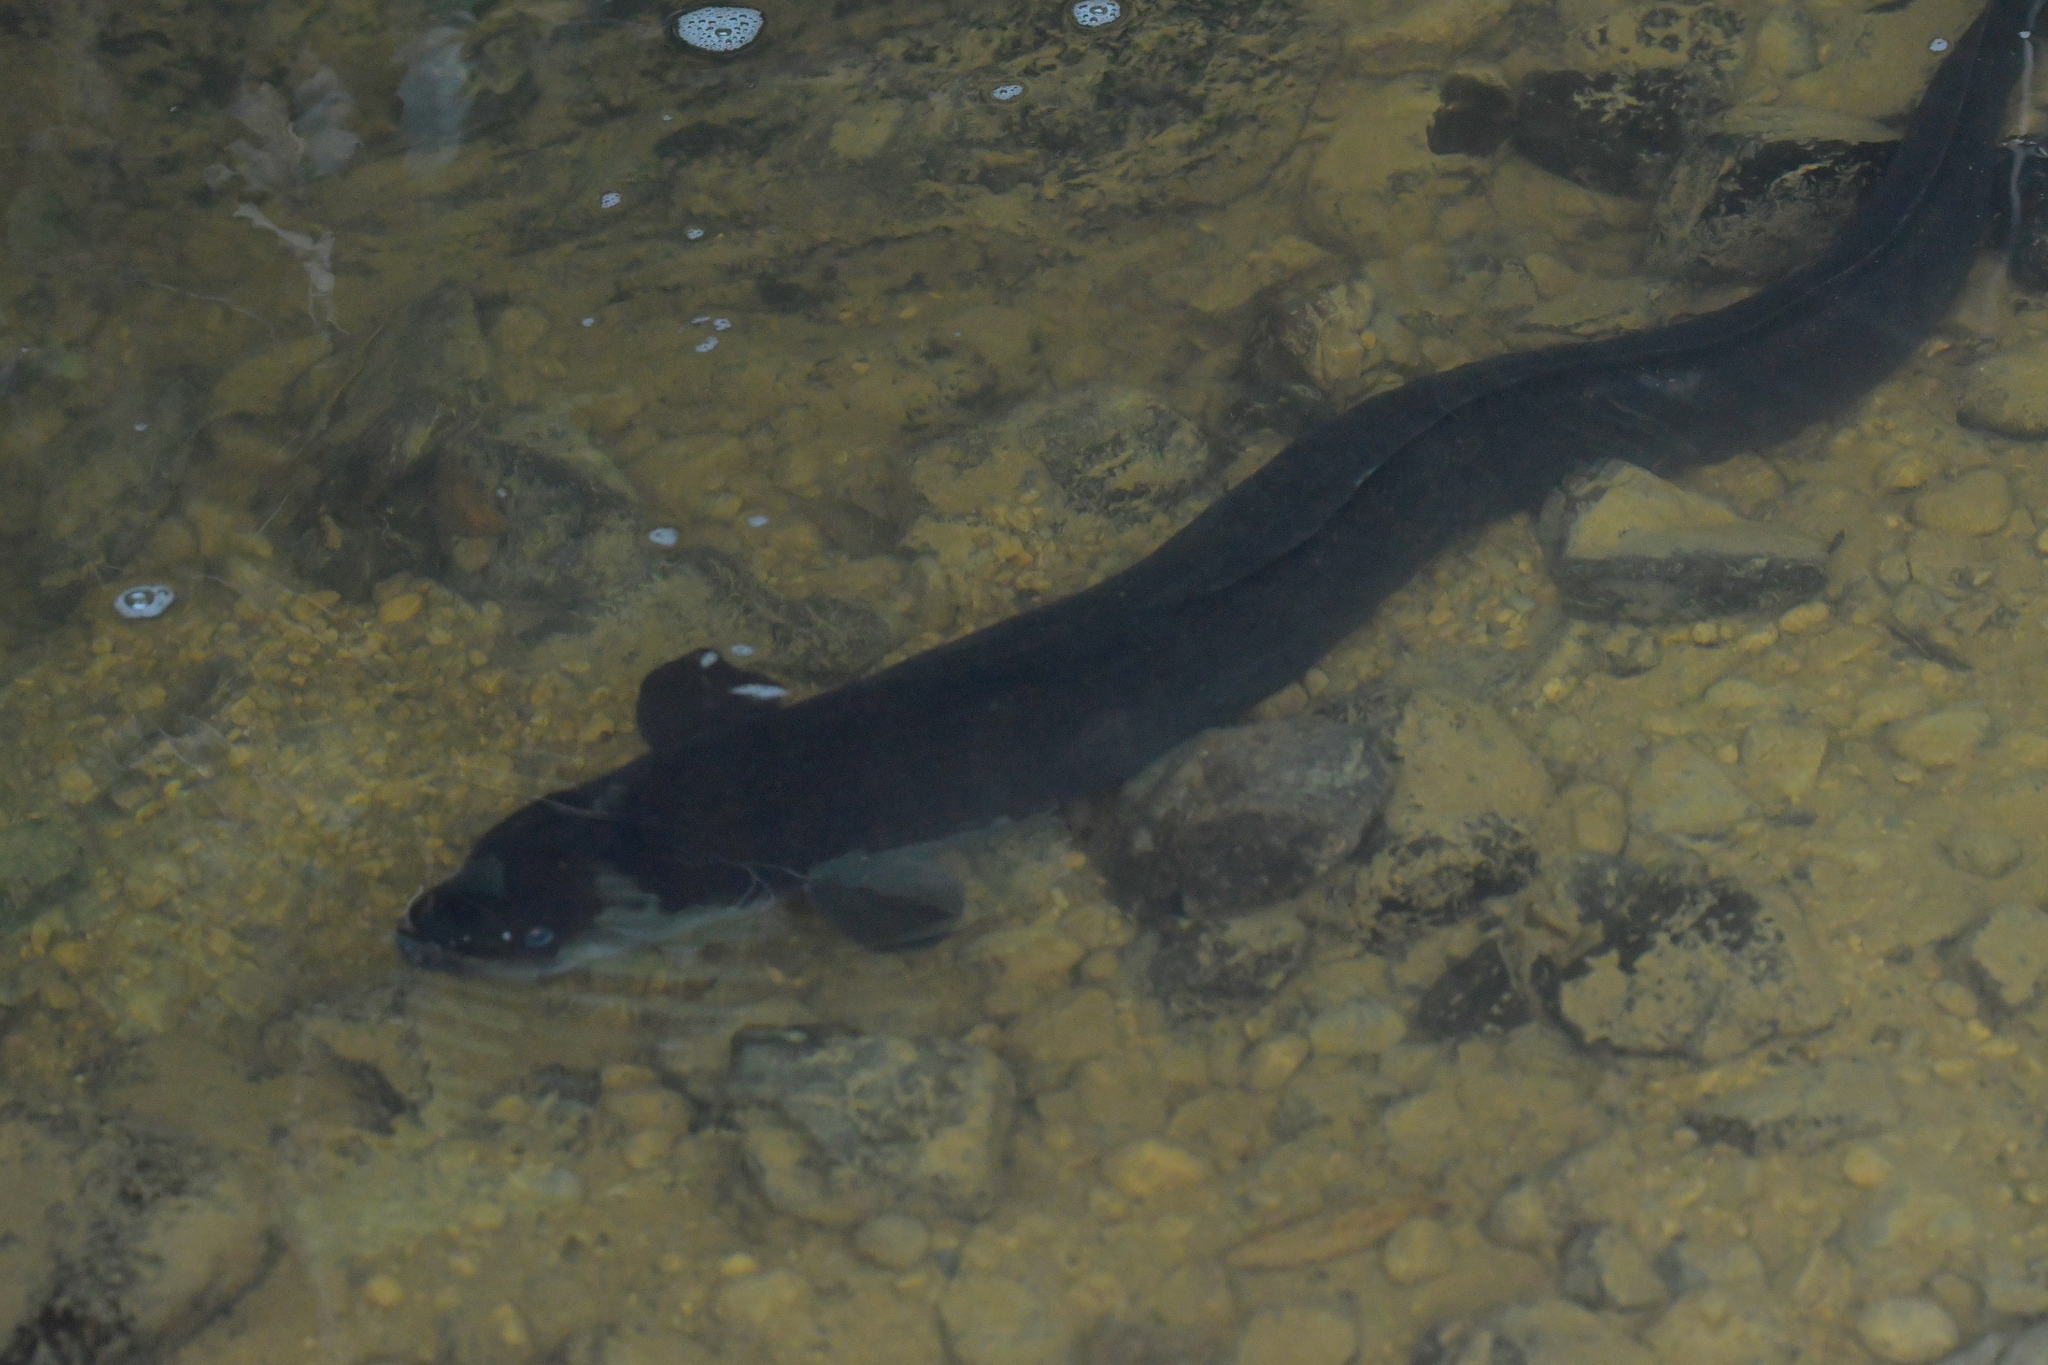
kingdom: Animalia
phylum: Chordata
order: Anguilliformes
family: Anguillidae
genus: Anguilla
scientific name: Anguilla dieffenbachii
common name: New zealand longfin eel
